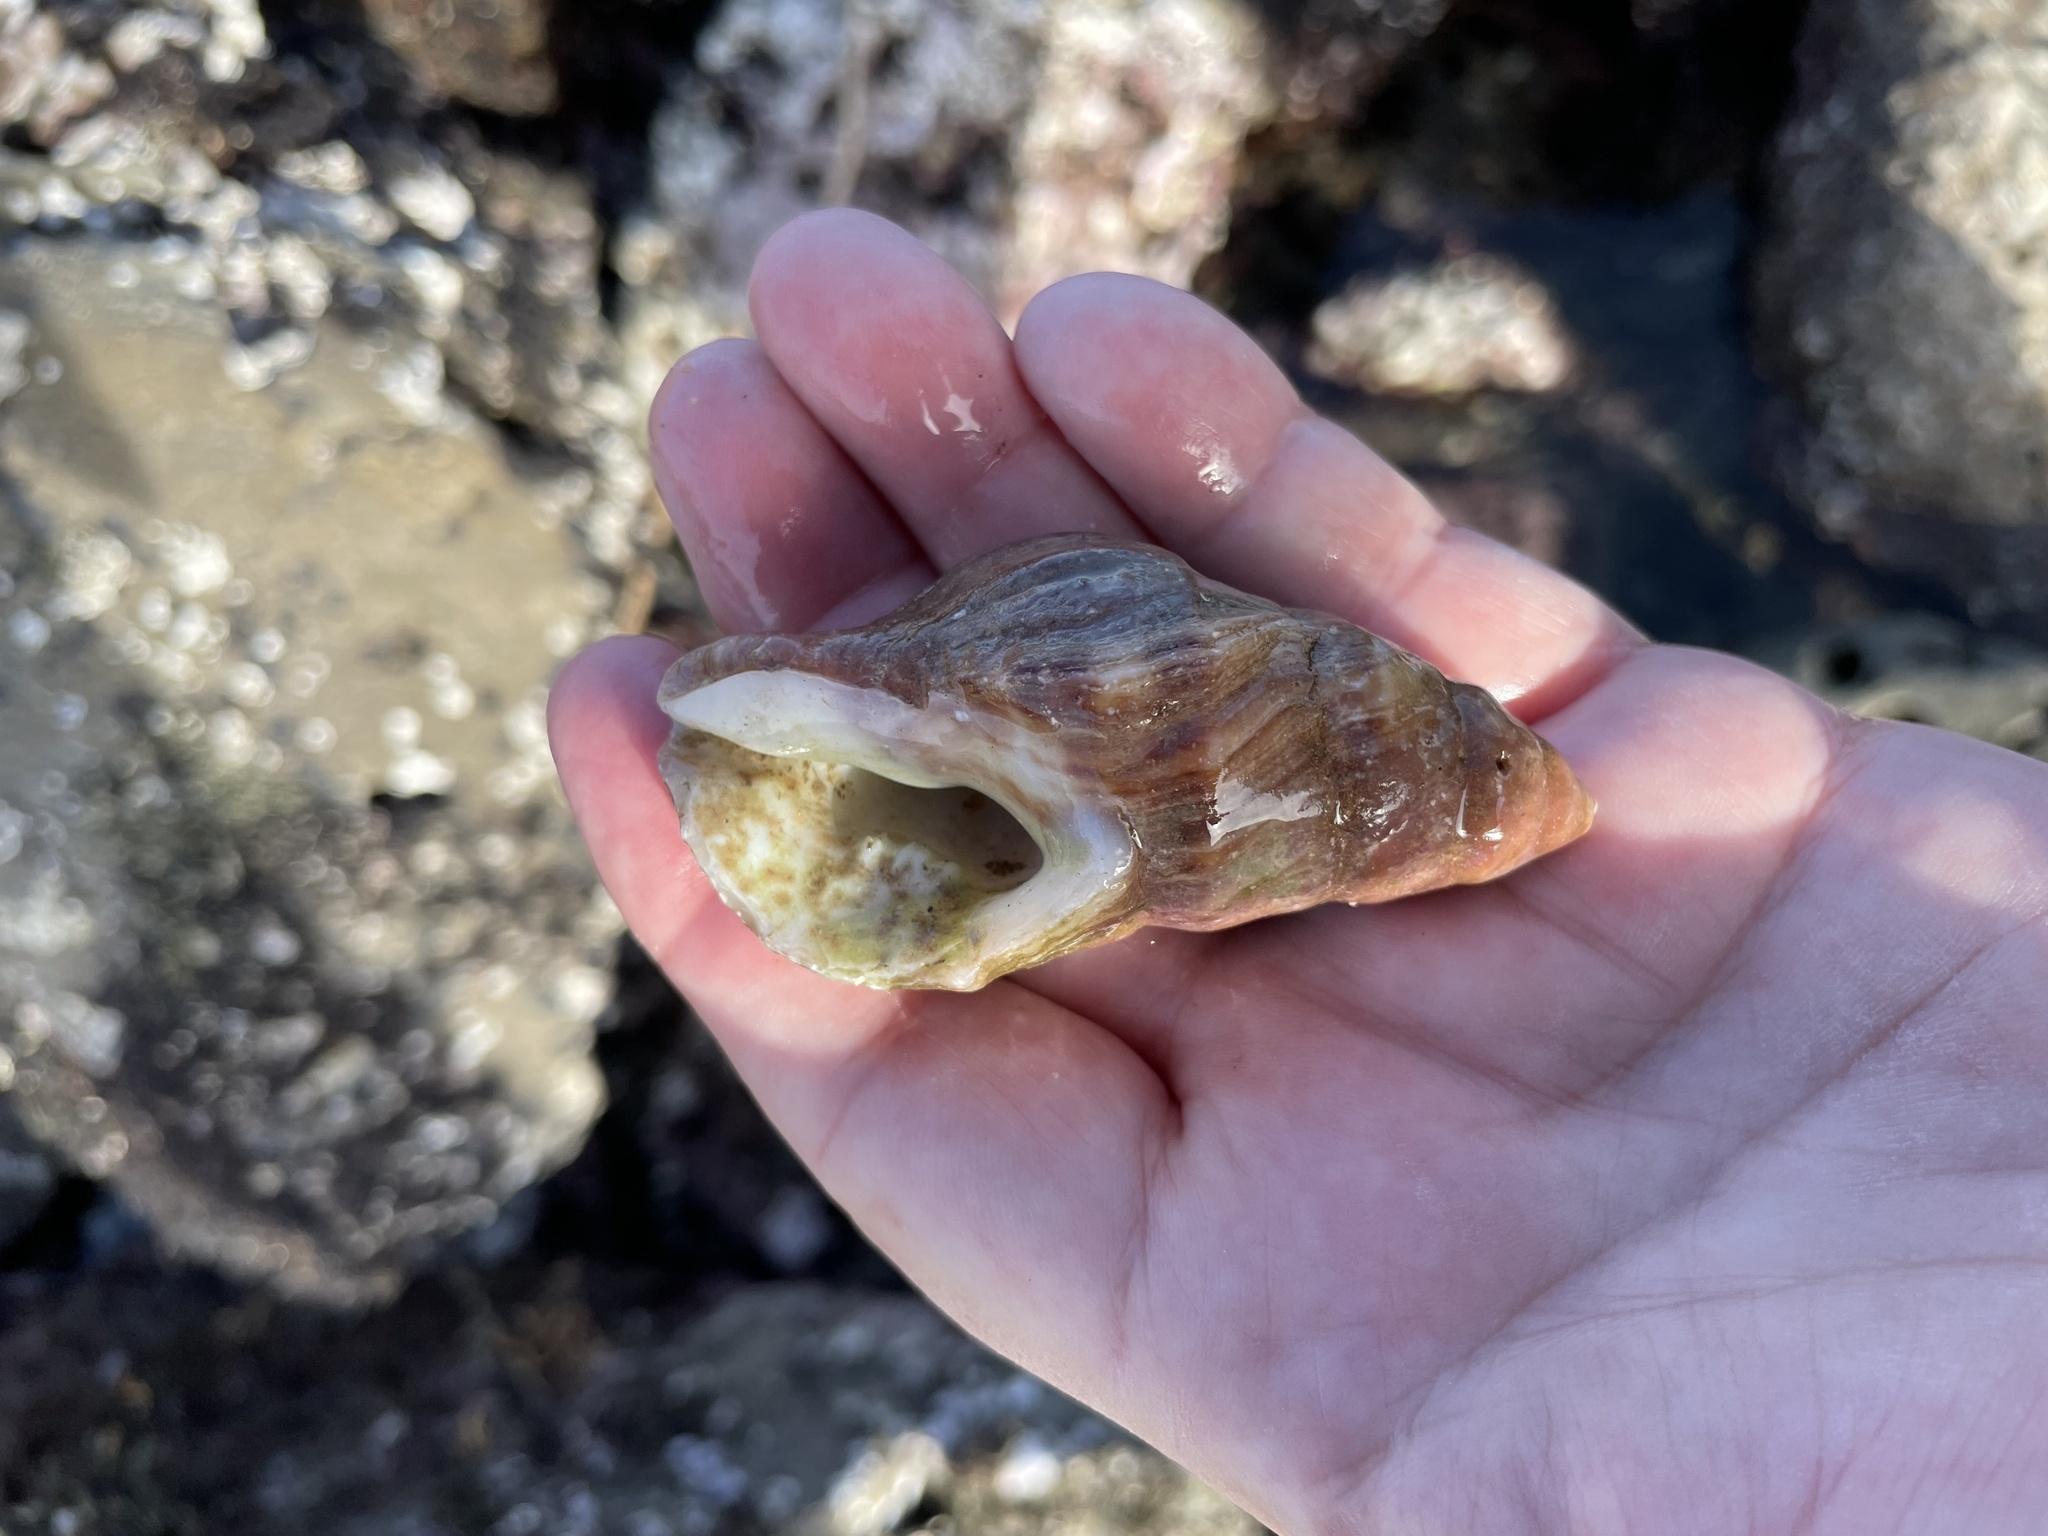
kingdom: Animalia
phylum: Mollusca
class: Gastropoda
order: Neogastropoda
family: Muricidae
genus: Nucella
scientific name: Nucella lamellosa
